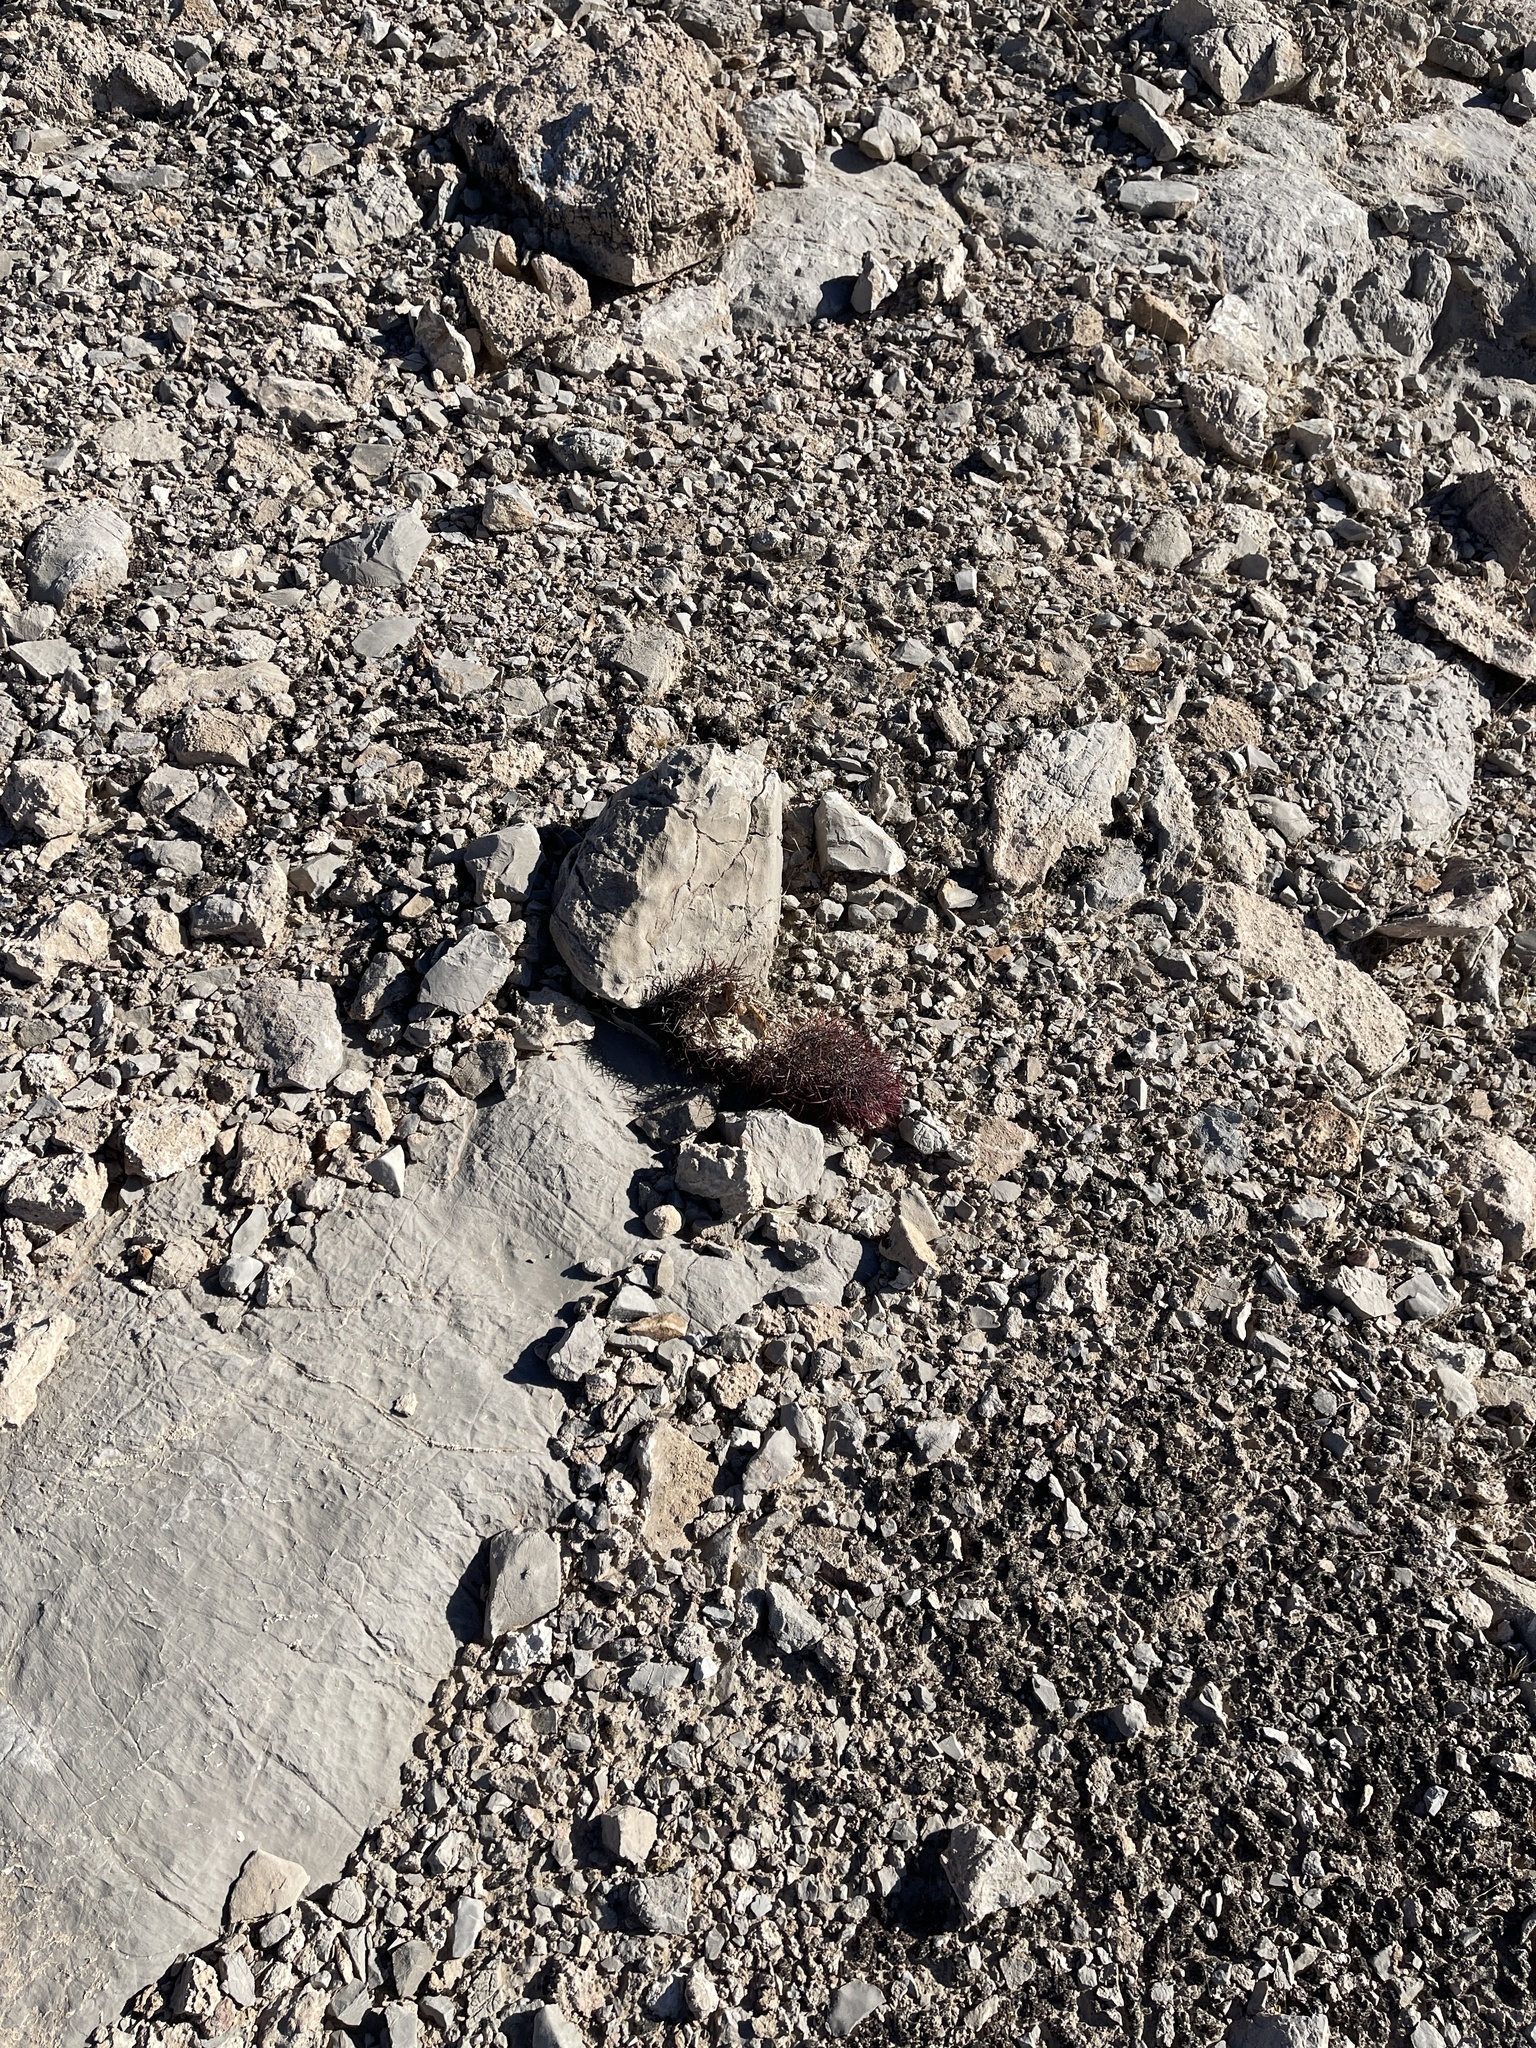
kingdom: Plantae
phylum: Tracheophyta
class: Magnoliopsida
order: Caryophyllales
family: Cactaceae
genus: Sclerocactus
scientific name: Sclerocactus johnsonii
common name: Eight-spine fishhook cactus
